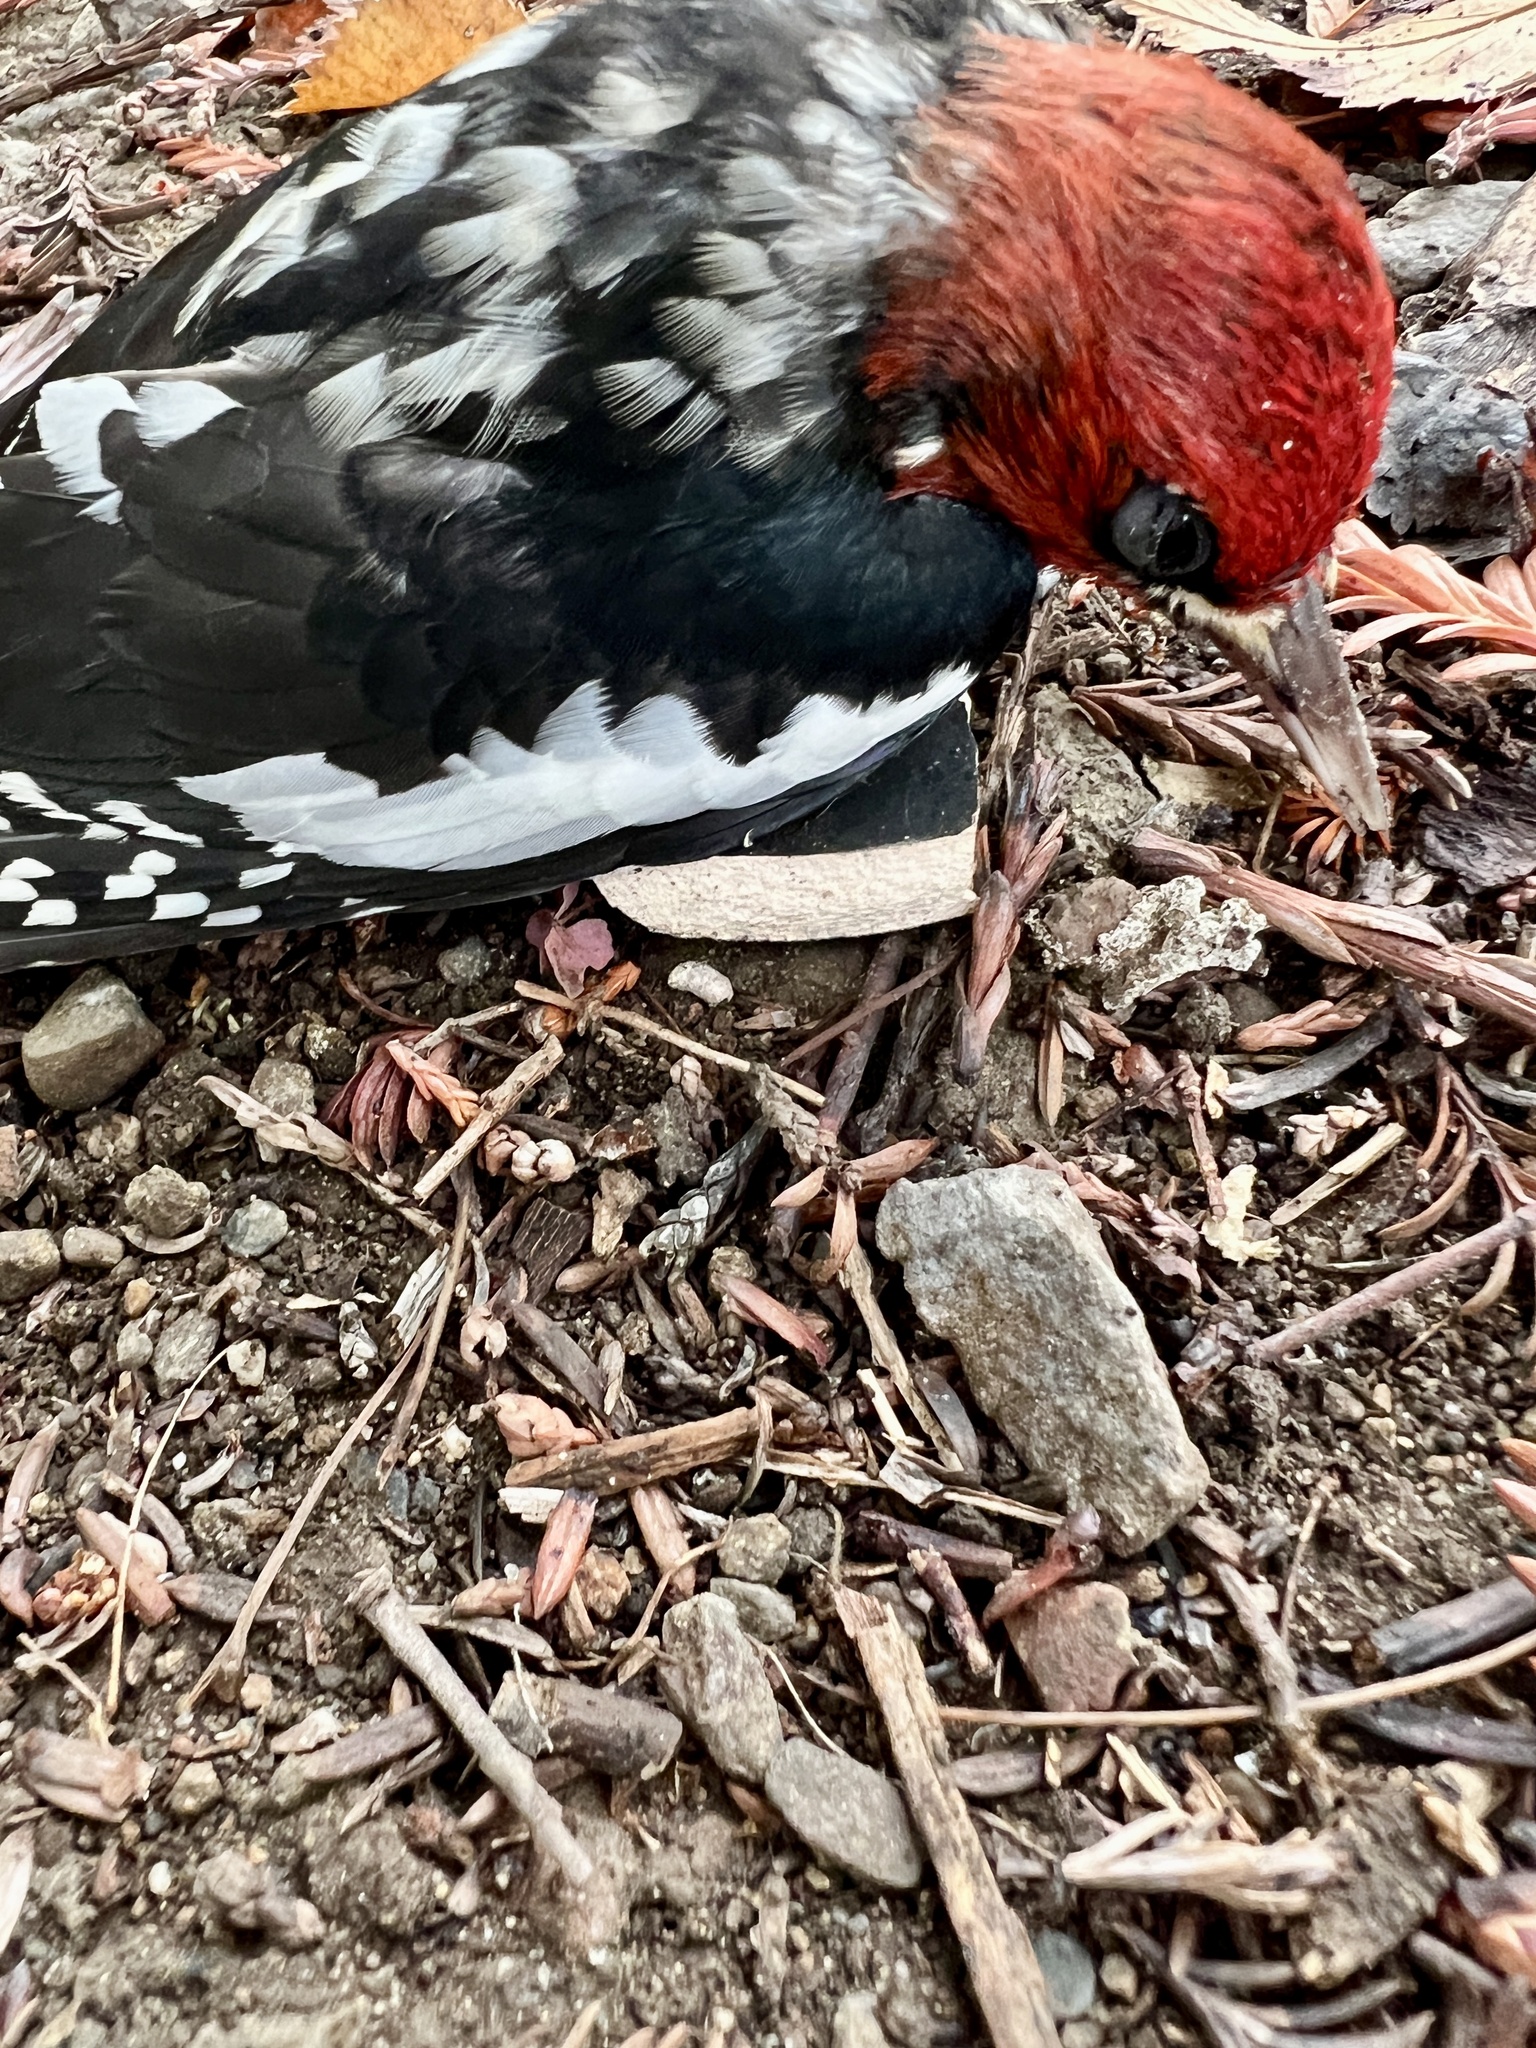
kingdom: Animalia
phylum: Chordata
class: Aves
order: Piciformes
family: Picidae
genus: Sphyrapicus
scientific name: Sphyrapicus ruber
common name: Red-breasted sapsucker
